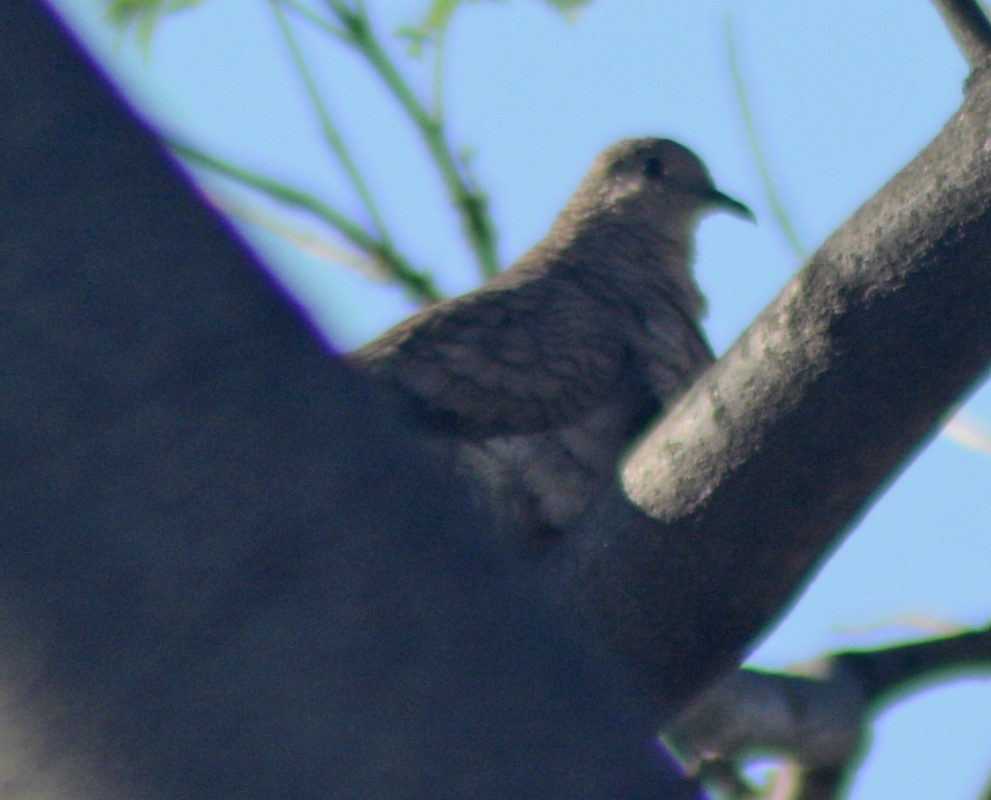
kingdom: Animalia
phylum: Chordata
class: Aves
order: Columbiformes
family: Columbidae
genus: Columbina
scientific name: Columbina inca
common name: Inca dove
